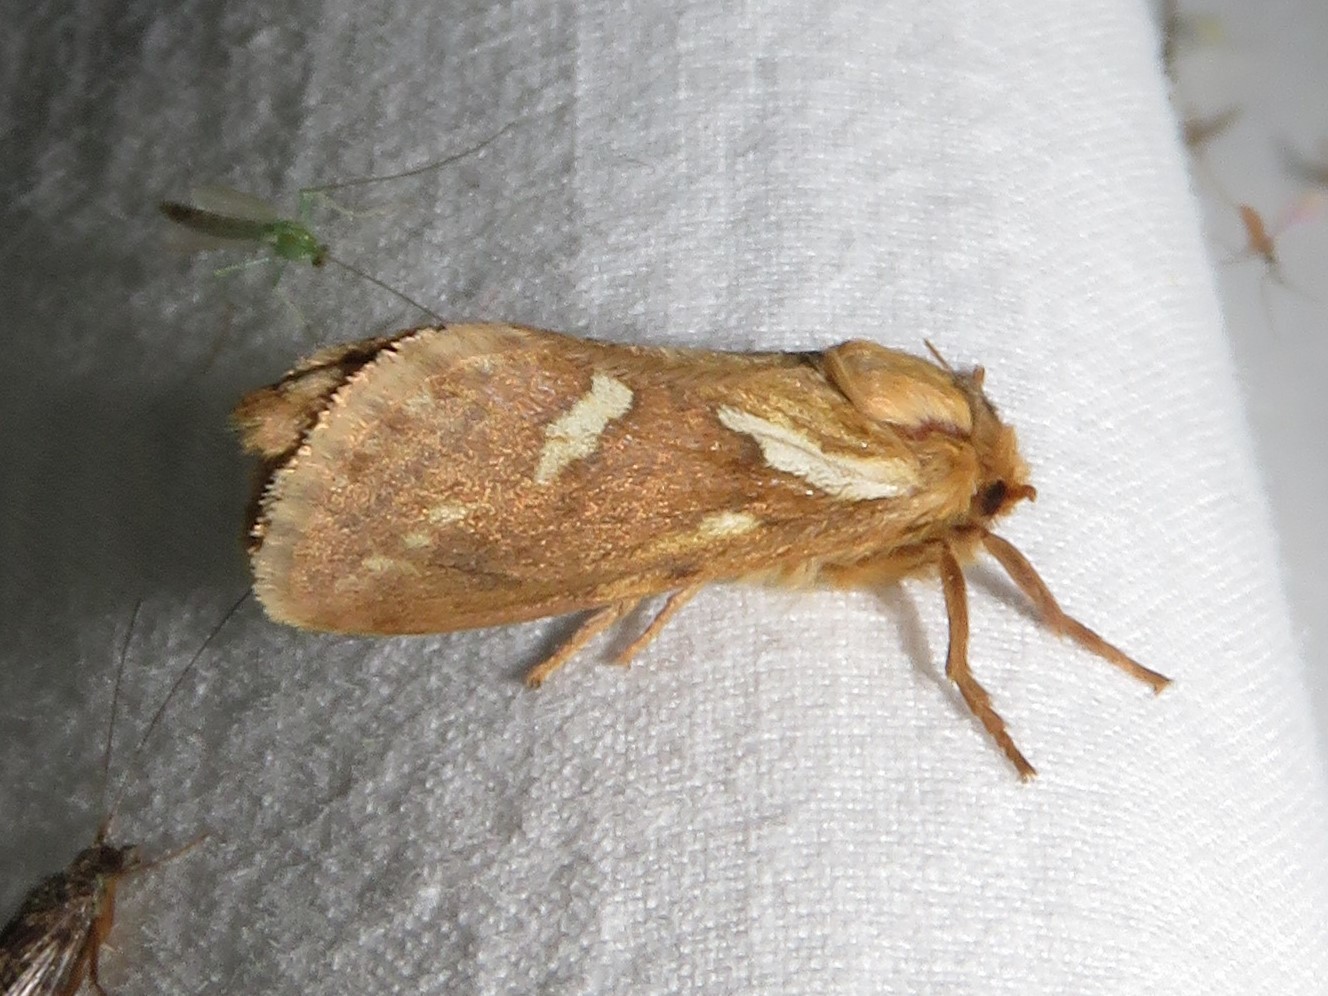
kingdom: Animalia
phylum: Arthropoda
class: Insecta
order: Lepidoptera
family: Hepialidae
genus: Korscheltellus
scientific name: Korscheltellus lupulina
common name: Common swift
